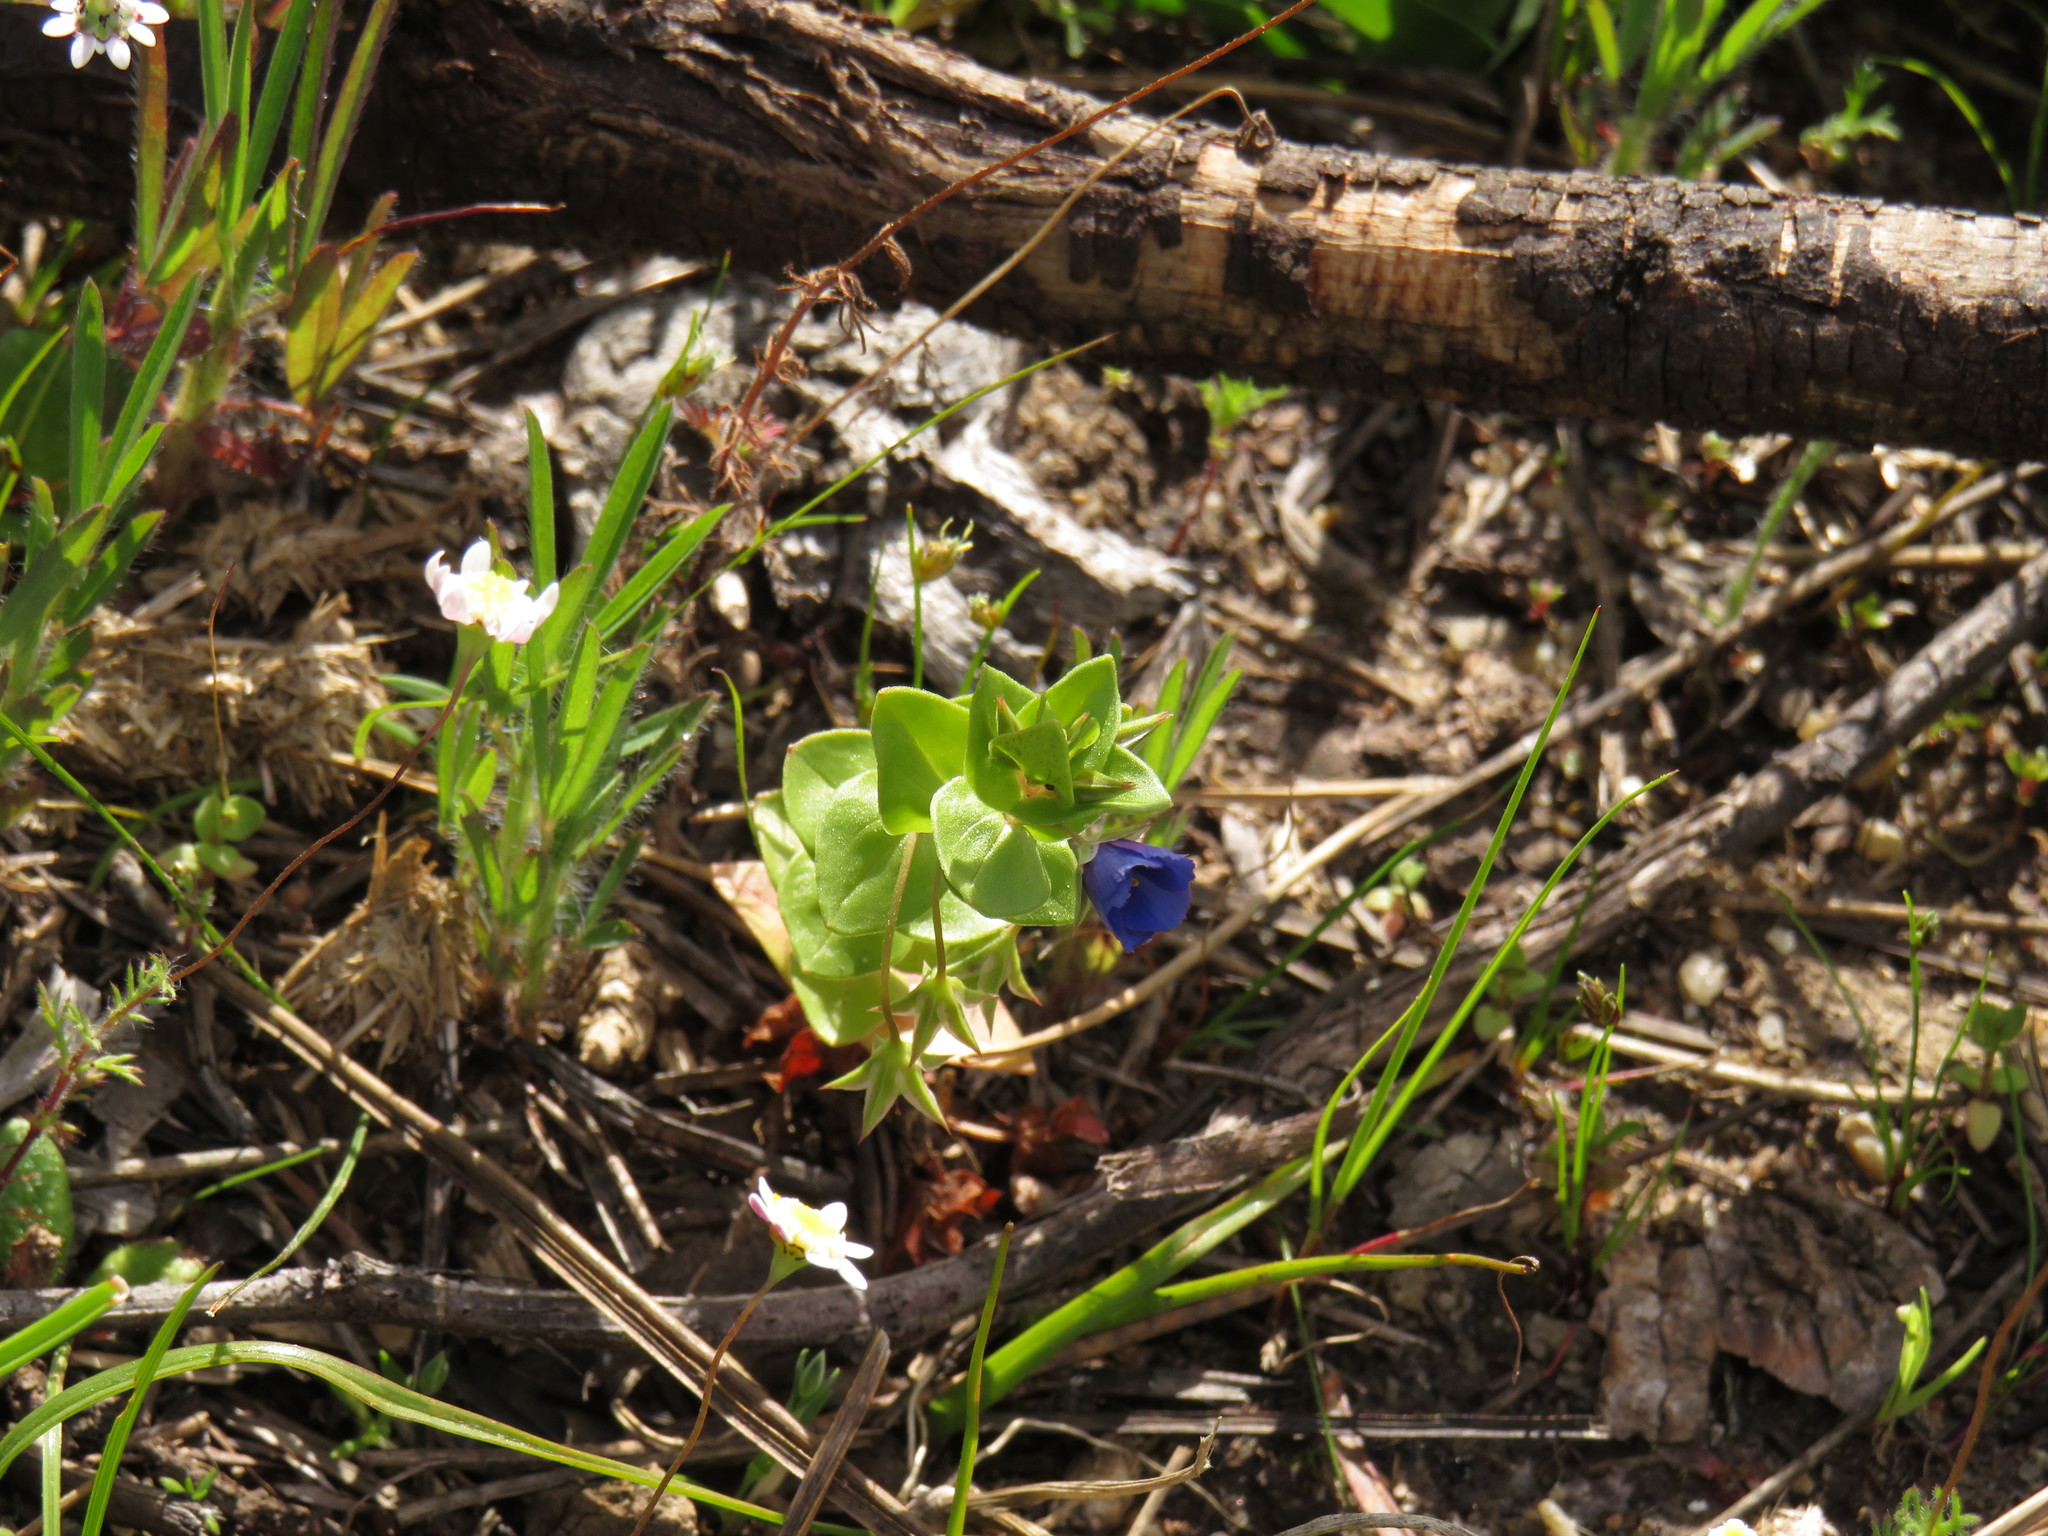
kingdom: Plantae
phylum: Tracheophyta
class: Magnoliopsida
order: Ericales
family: Primulaceae
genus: Lysimachia
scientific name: Lysimachia loeflingii
